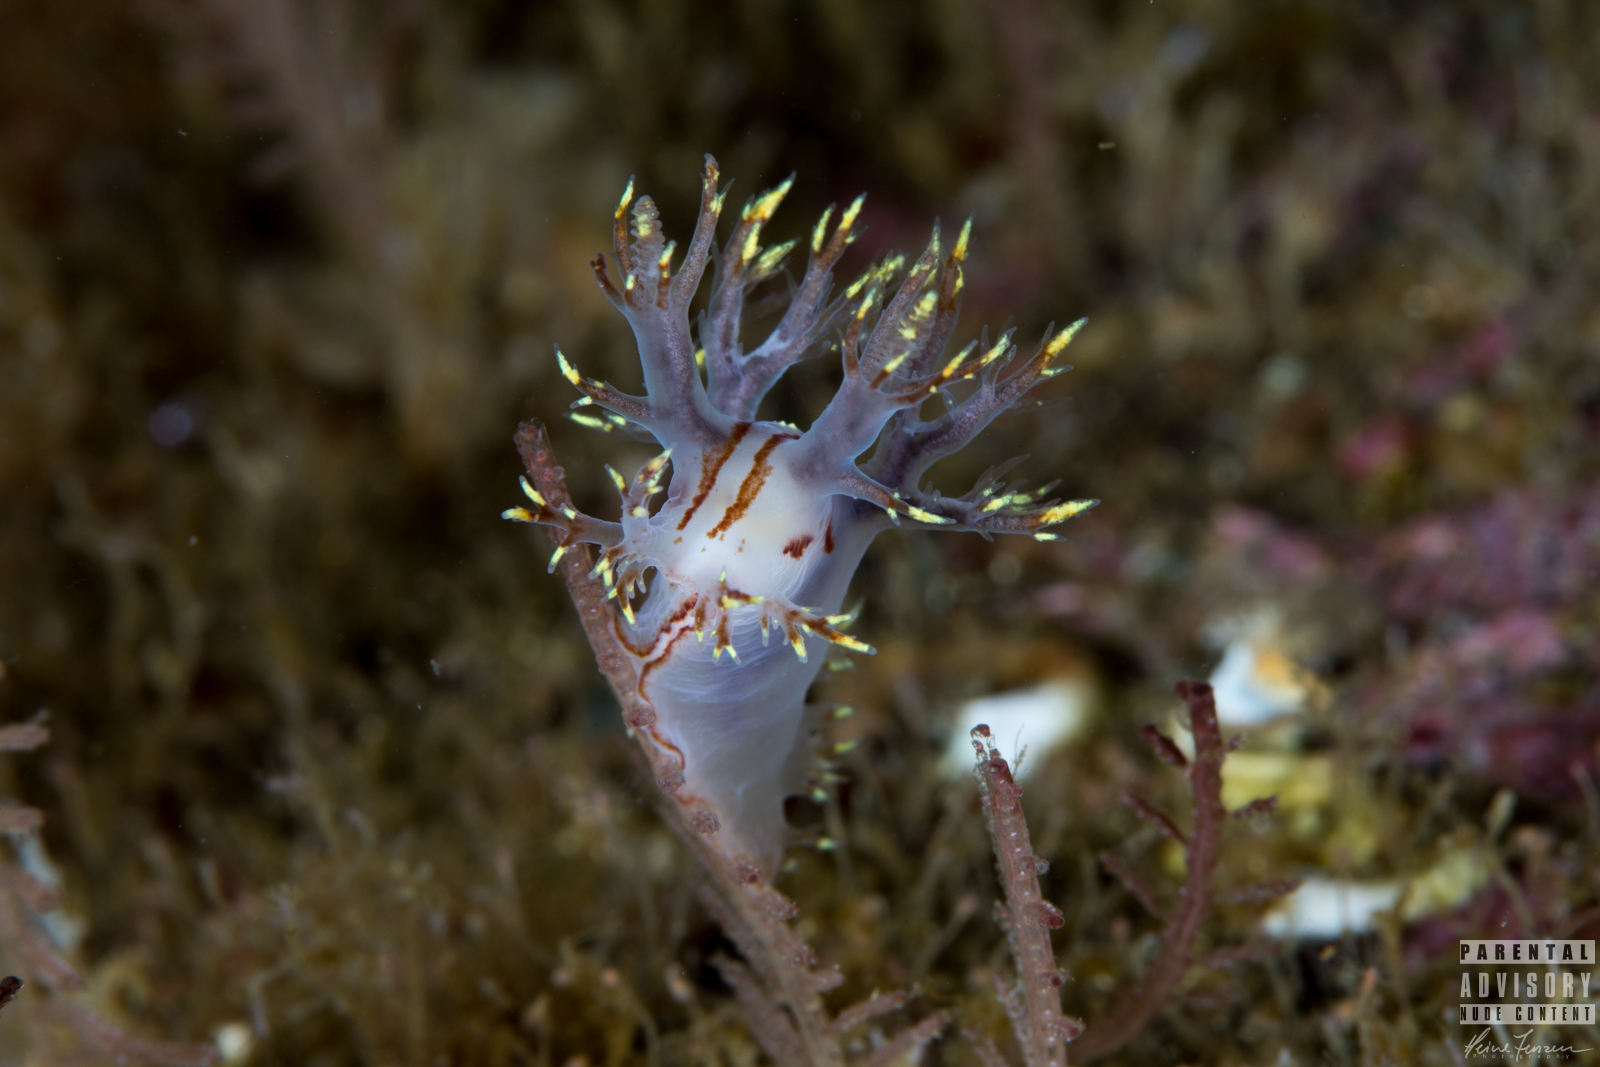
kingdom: Animalia
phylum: Mollusca
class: Gastropoda
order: Nudibranchia
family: Dendronotidae
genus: Dendronotus
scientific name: Dendronotus yrjargul
